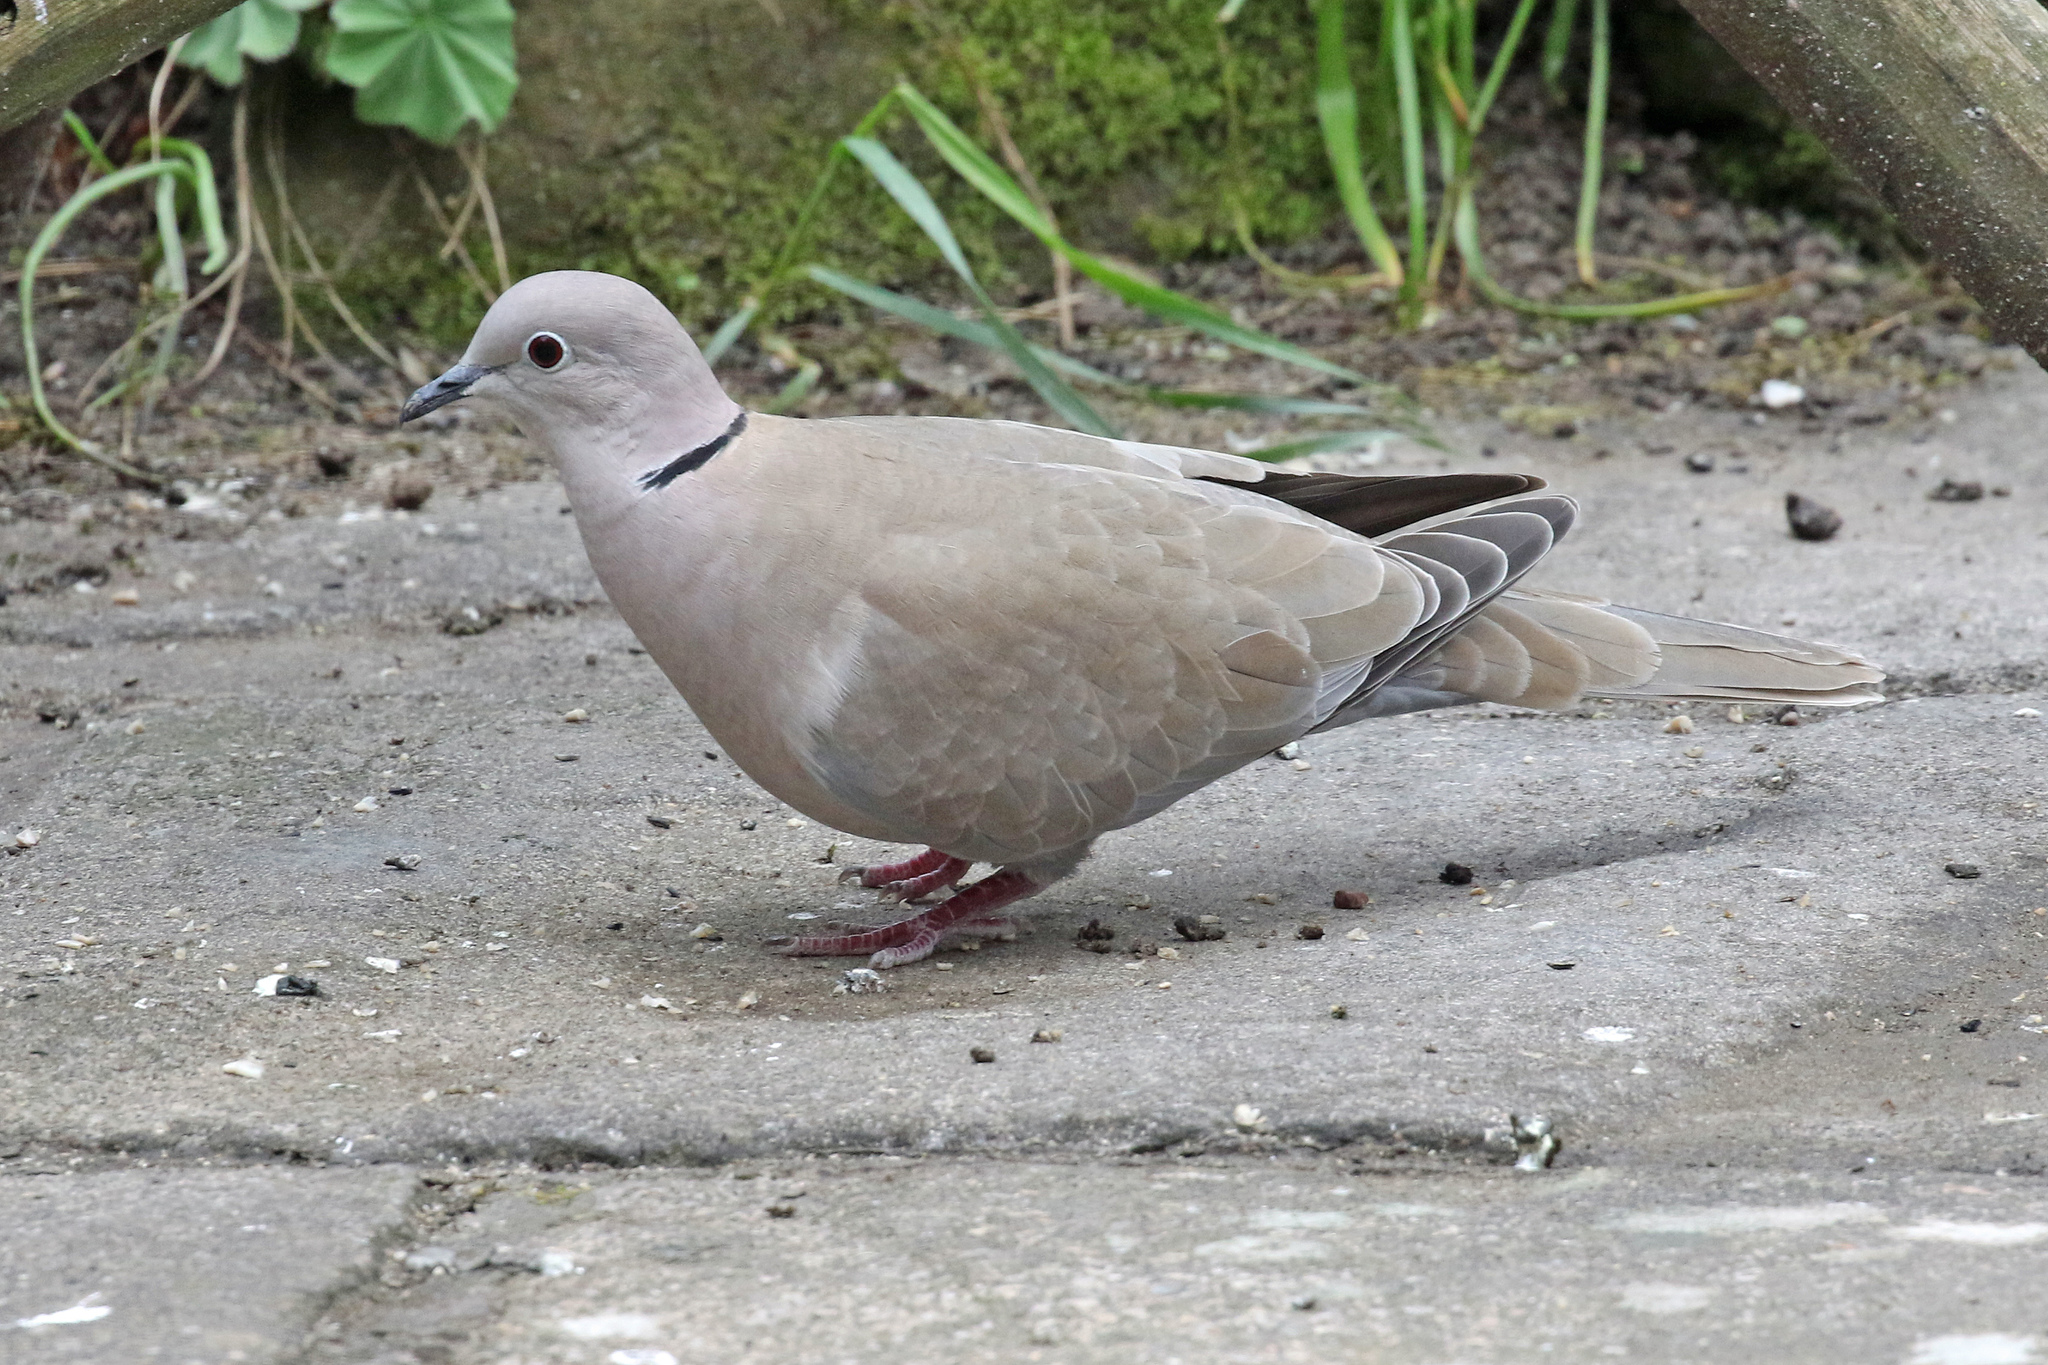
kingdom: Animalia
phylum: Chordata
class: Aves
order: Columbiformes
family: Columbidae
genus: Streptopelia
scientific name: Streptopelia decaocto
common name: Eurasian collared dove
